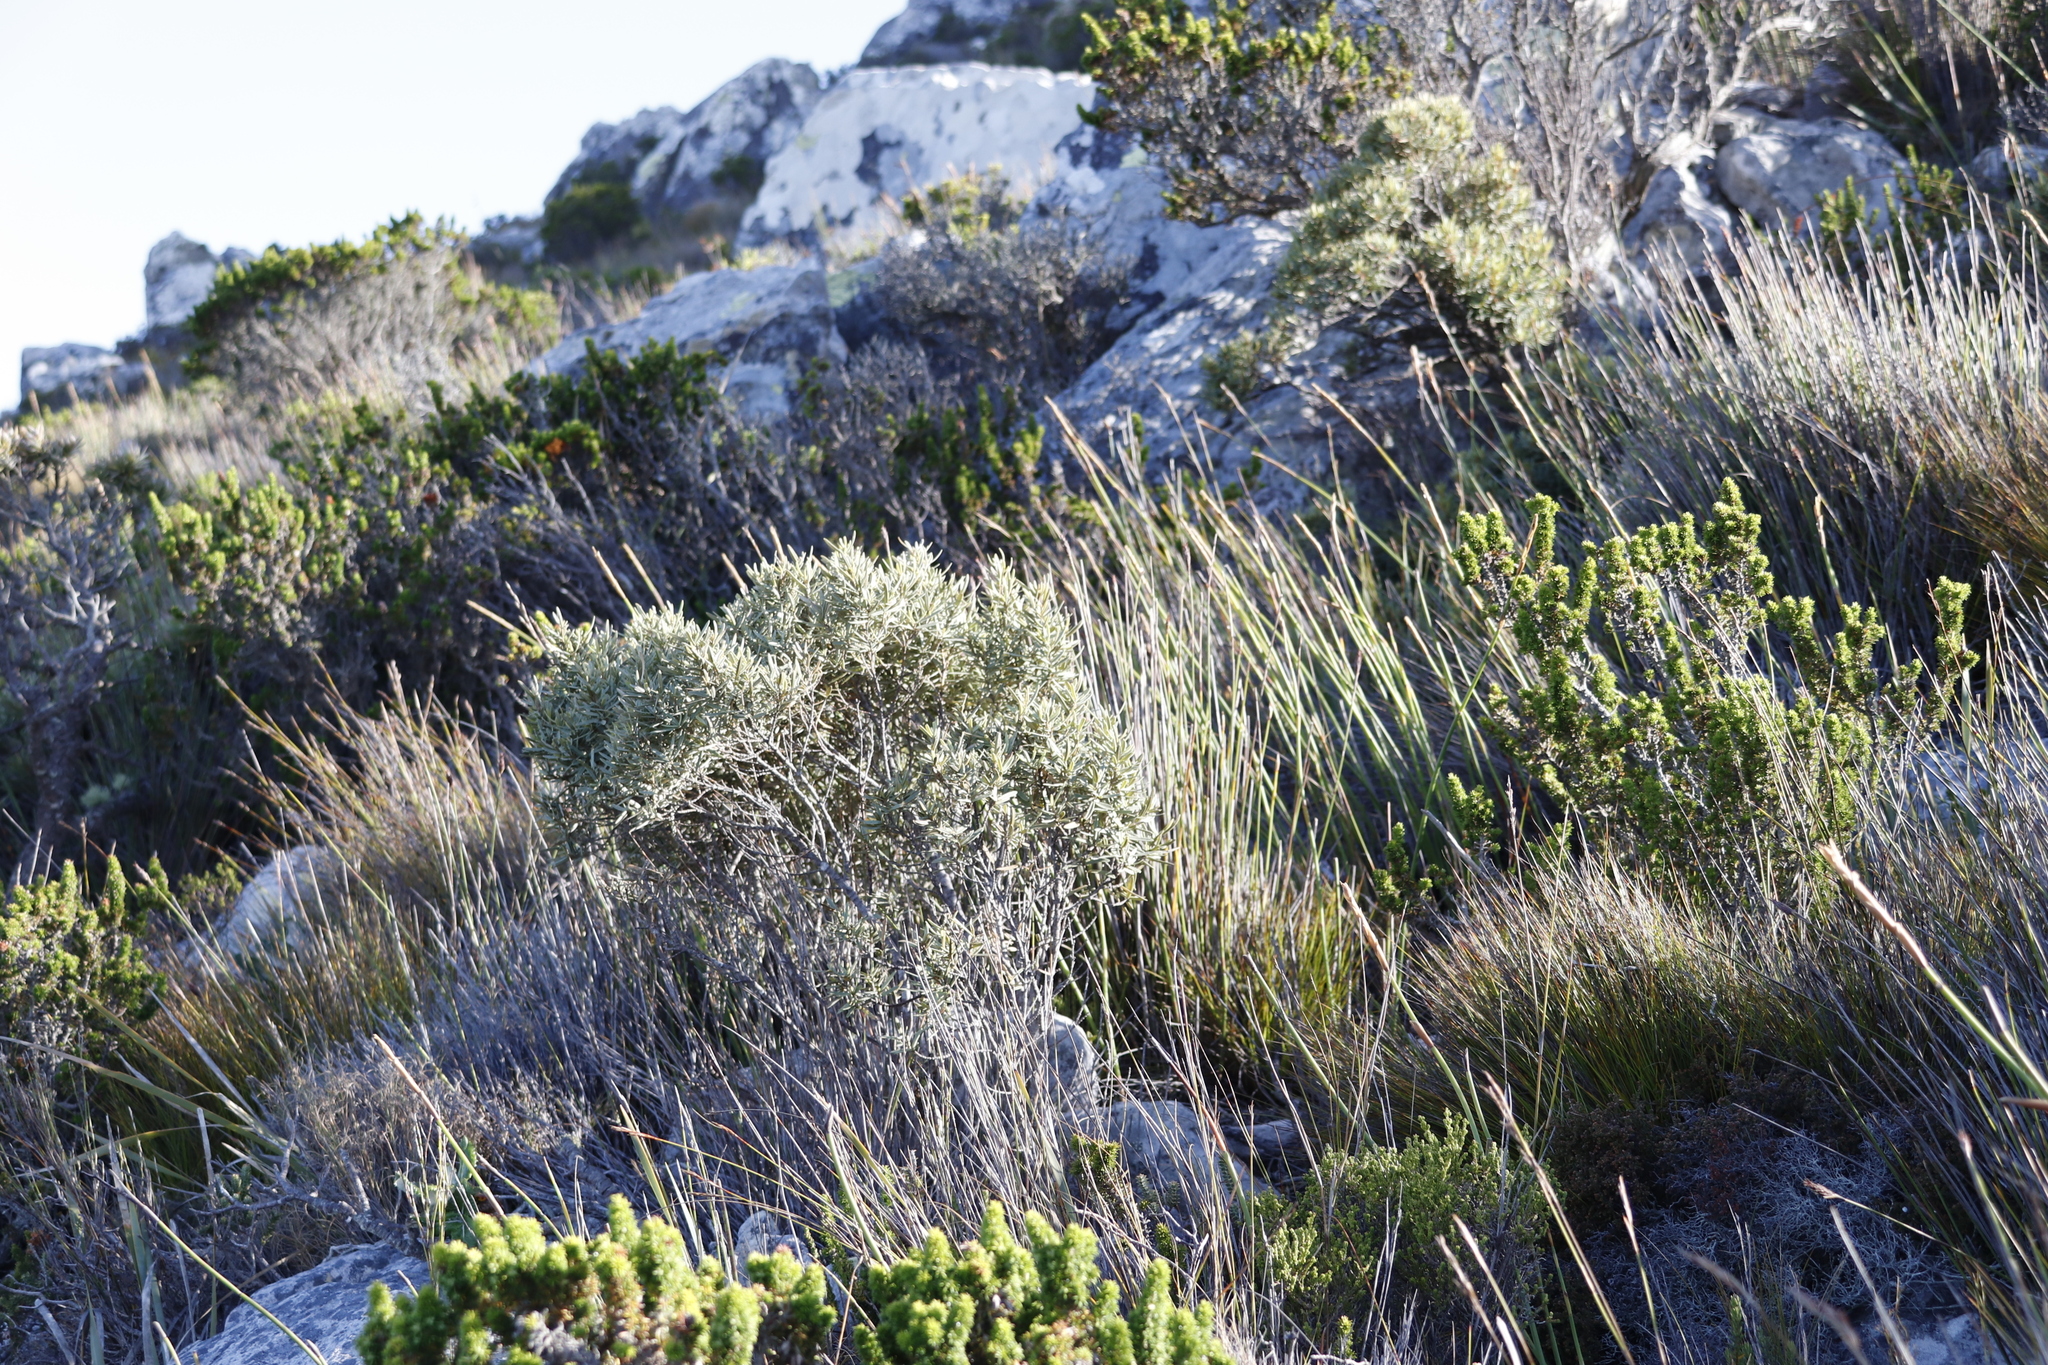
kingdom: Plantae
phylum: Tracheophyta
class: Magnoliopsida
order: Cornales
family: Grubbiaceae
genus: Grubbia
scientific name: Grubbia tomentosa
